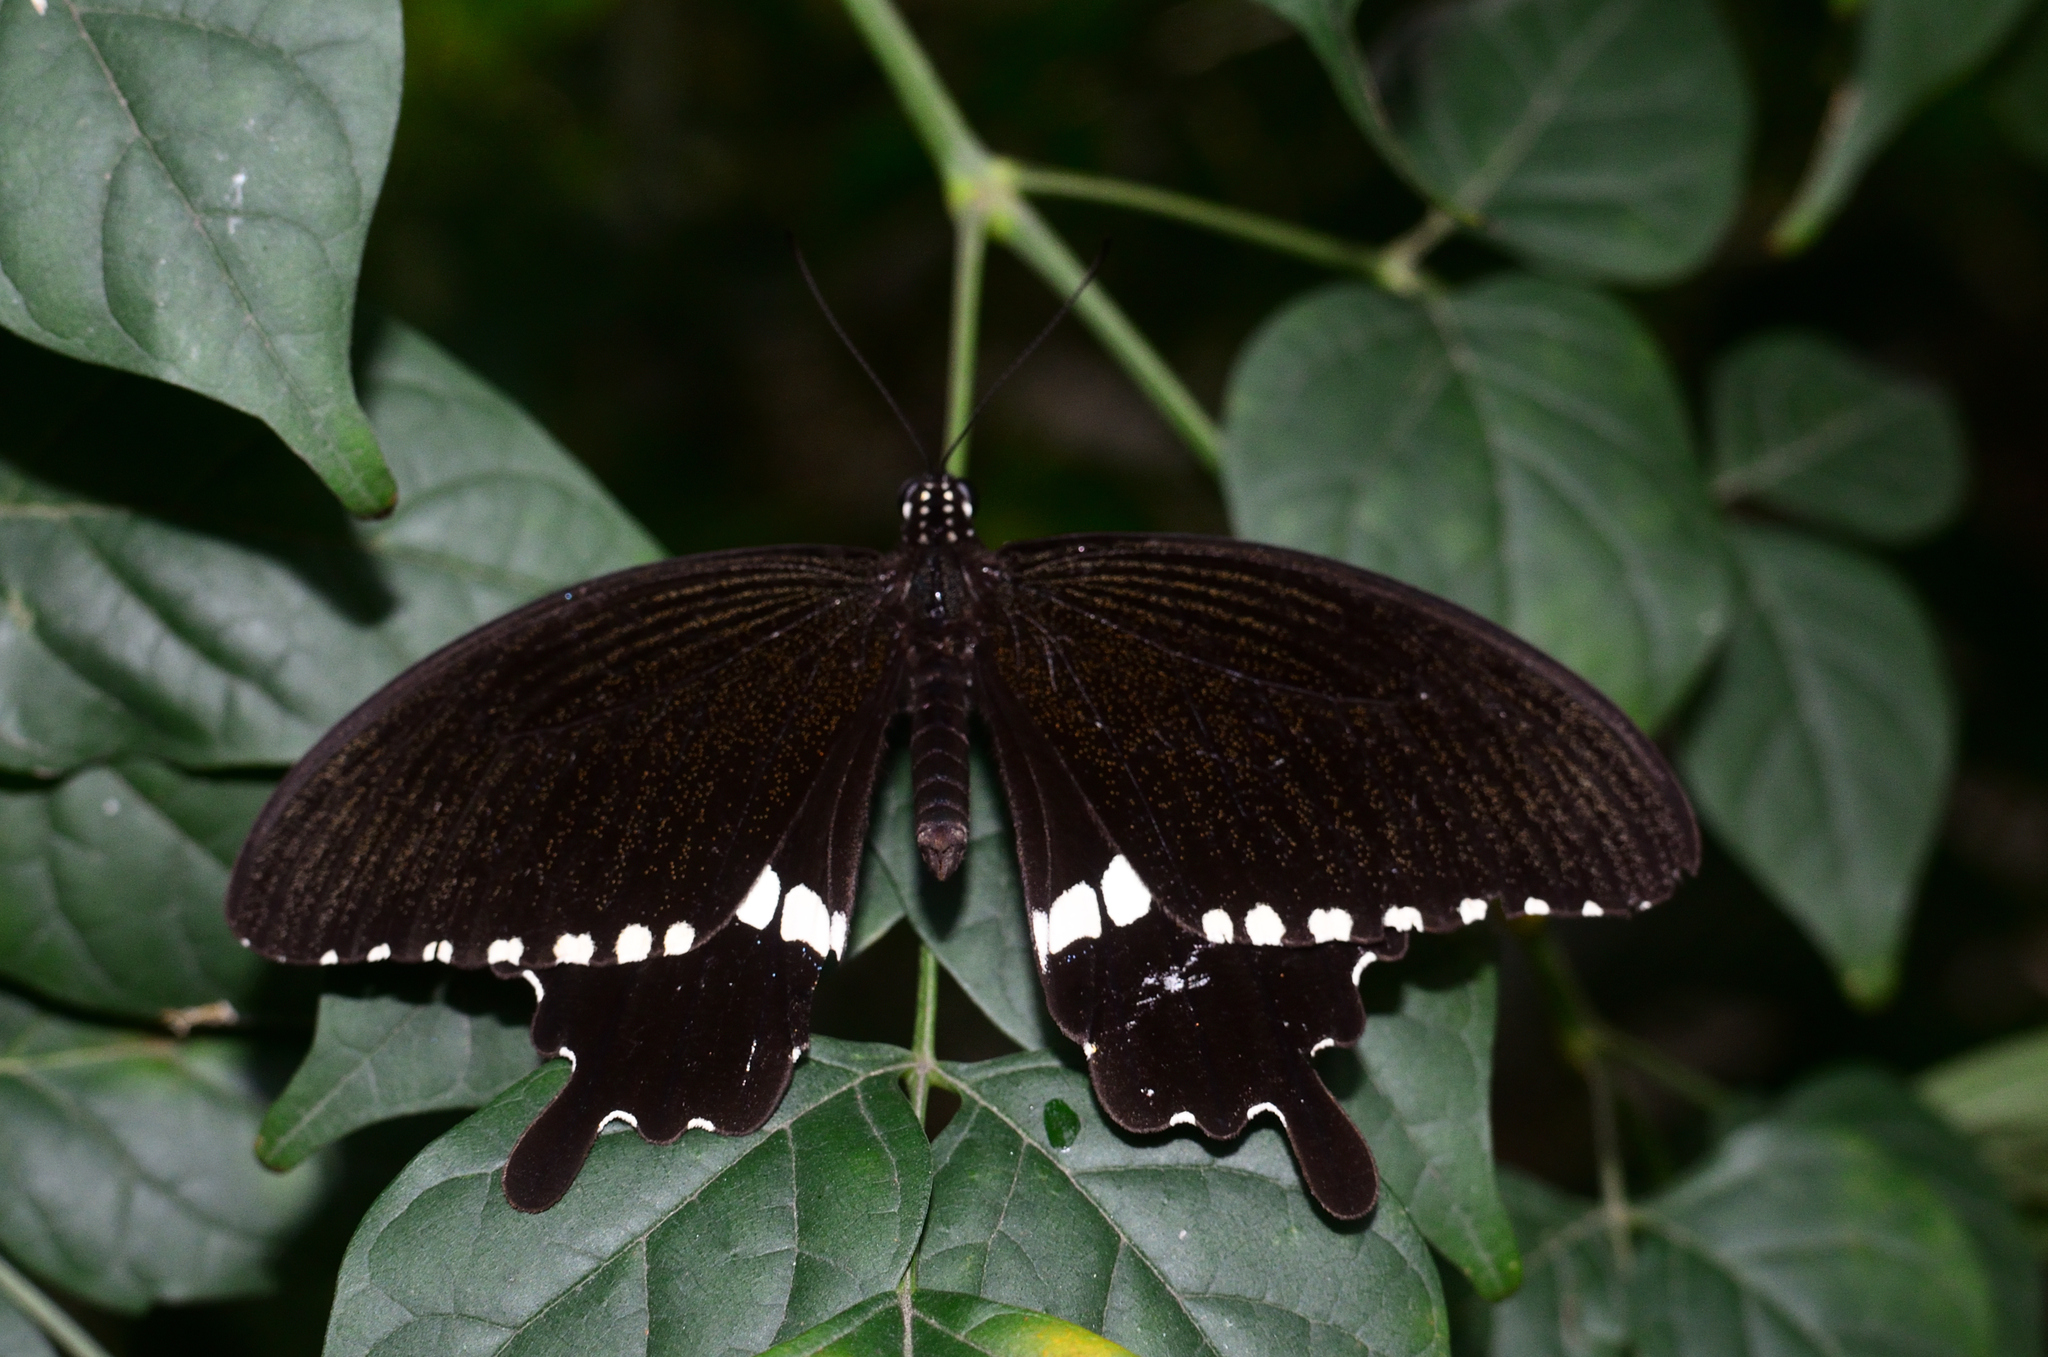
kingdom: Animalia
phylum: Arthropoda
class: Insecta
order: Lepidoptera
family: Papilionidae
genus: Papilio
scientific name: Papilio polytes
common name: Common mormon
